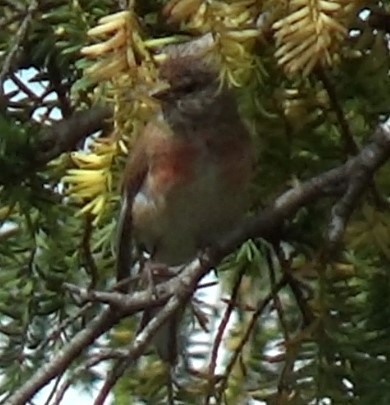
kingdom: Animalia
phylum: Chordata
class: Aves
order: Passeriformes
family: Fringillidae
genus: Linaria
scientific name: Linaria cannabina
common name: Common linnet
